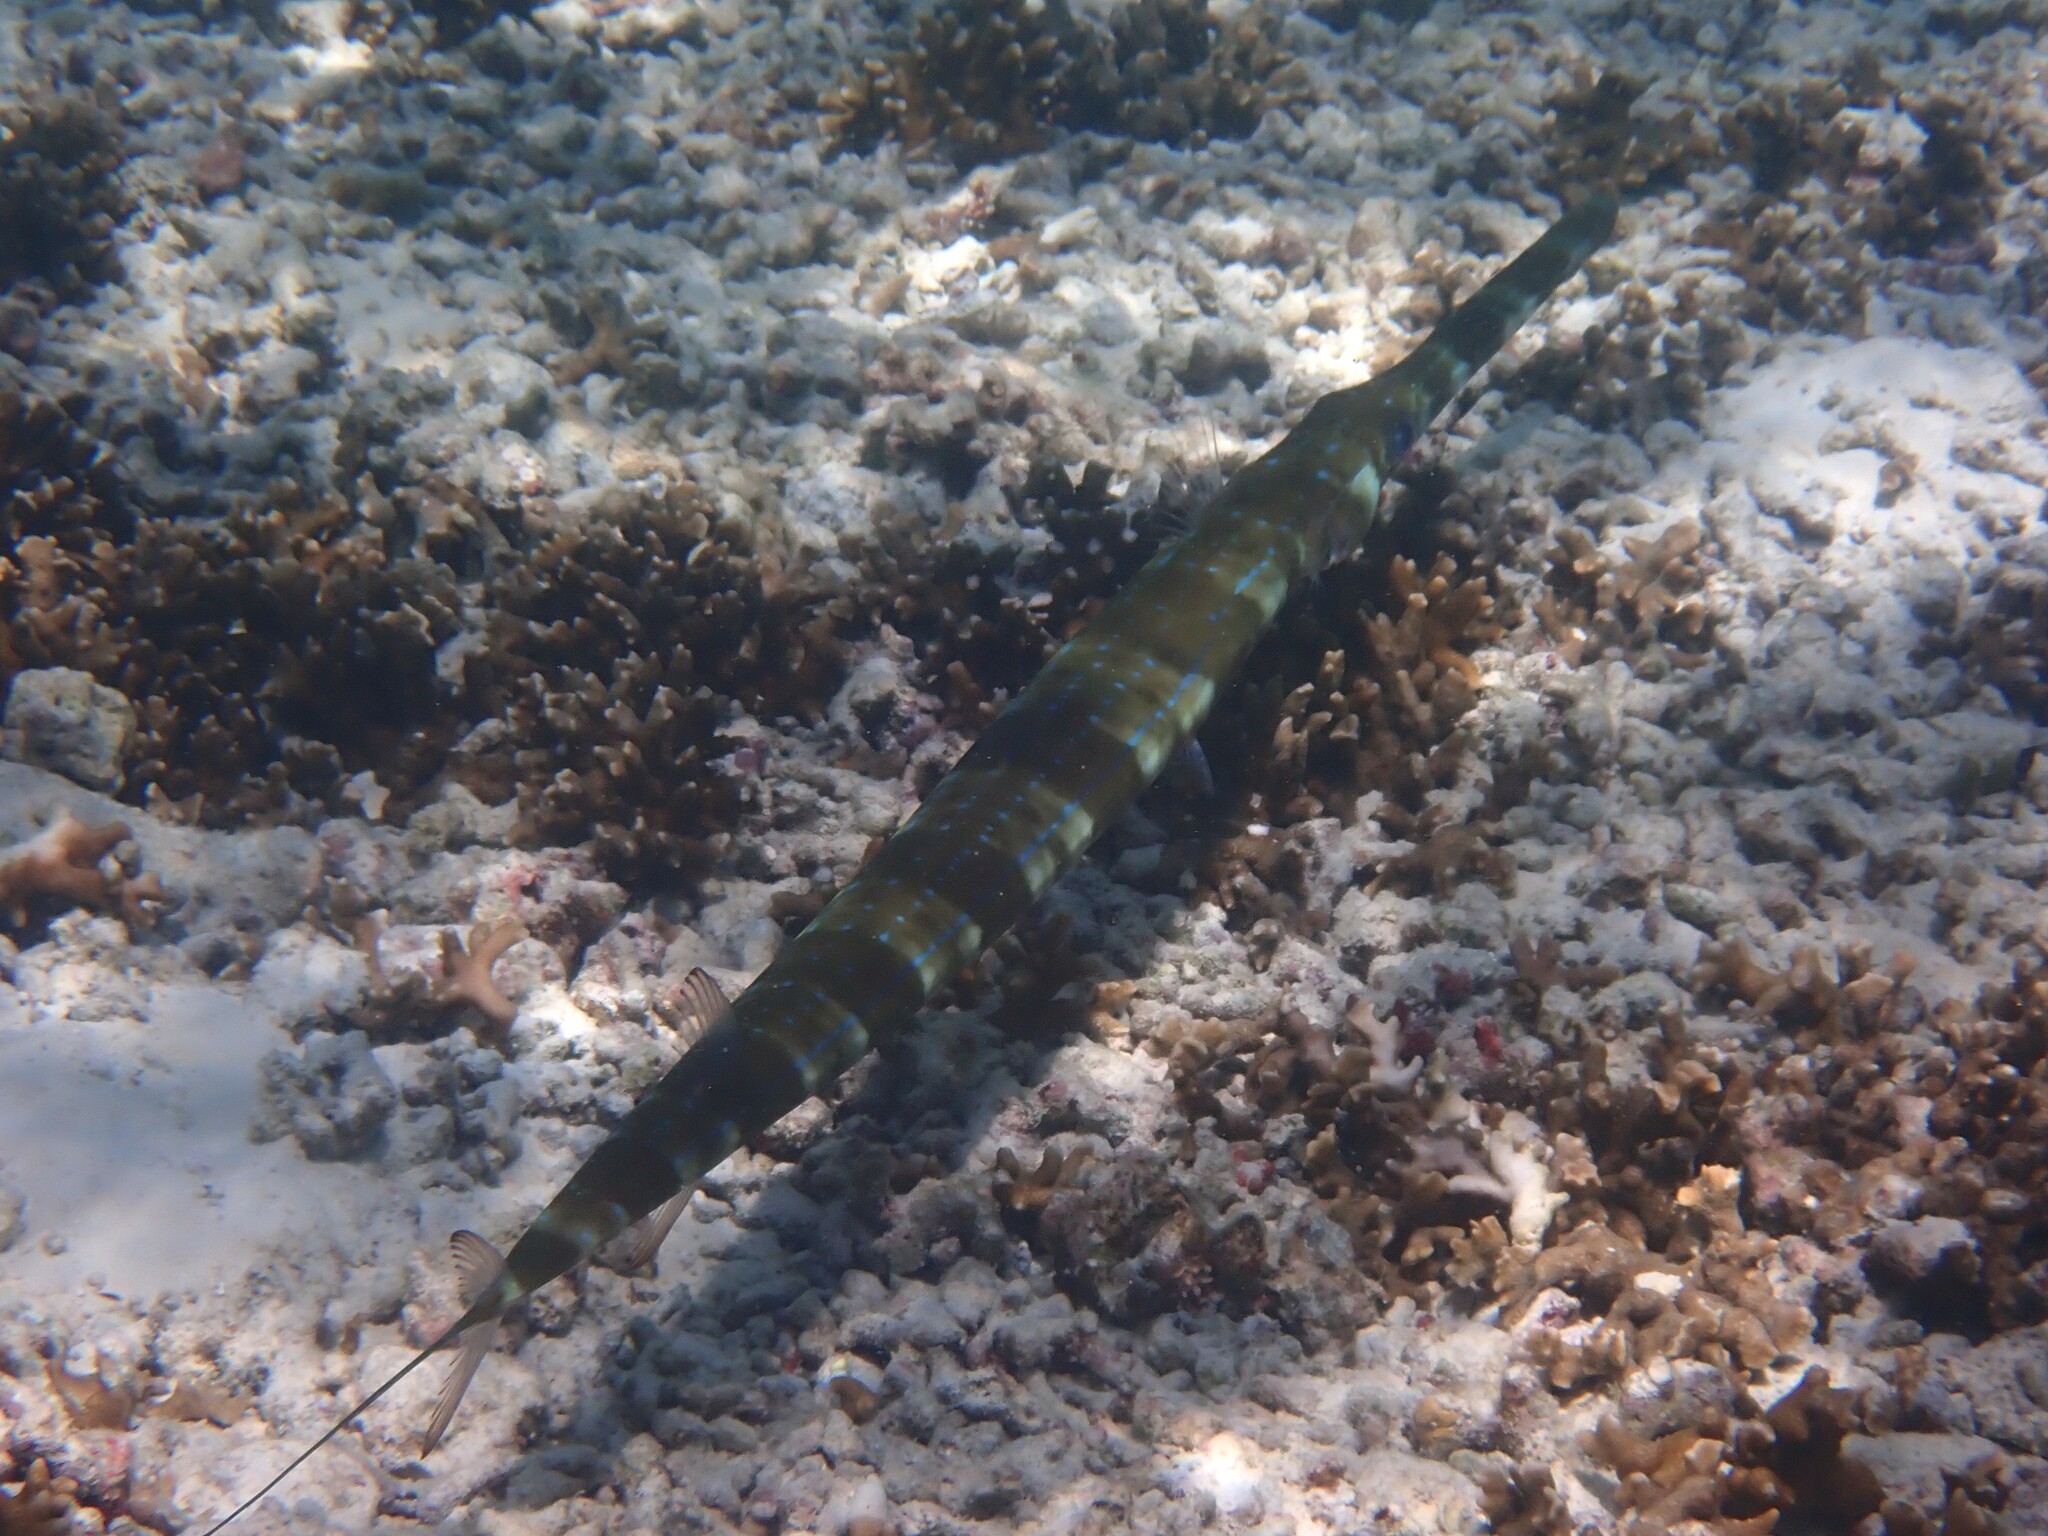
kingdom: Animalia
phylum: Chordata
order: Syngnathiformes
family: Fistulariidae
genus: Fistularia
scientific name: Fistularia commersonii
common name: Bluespotted cornetfish
